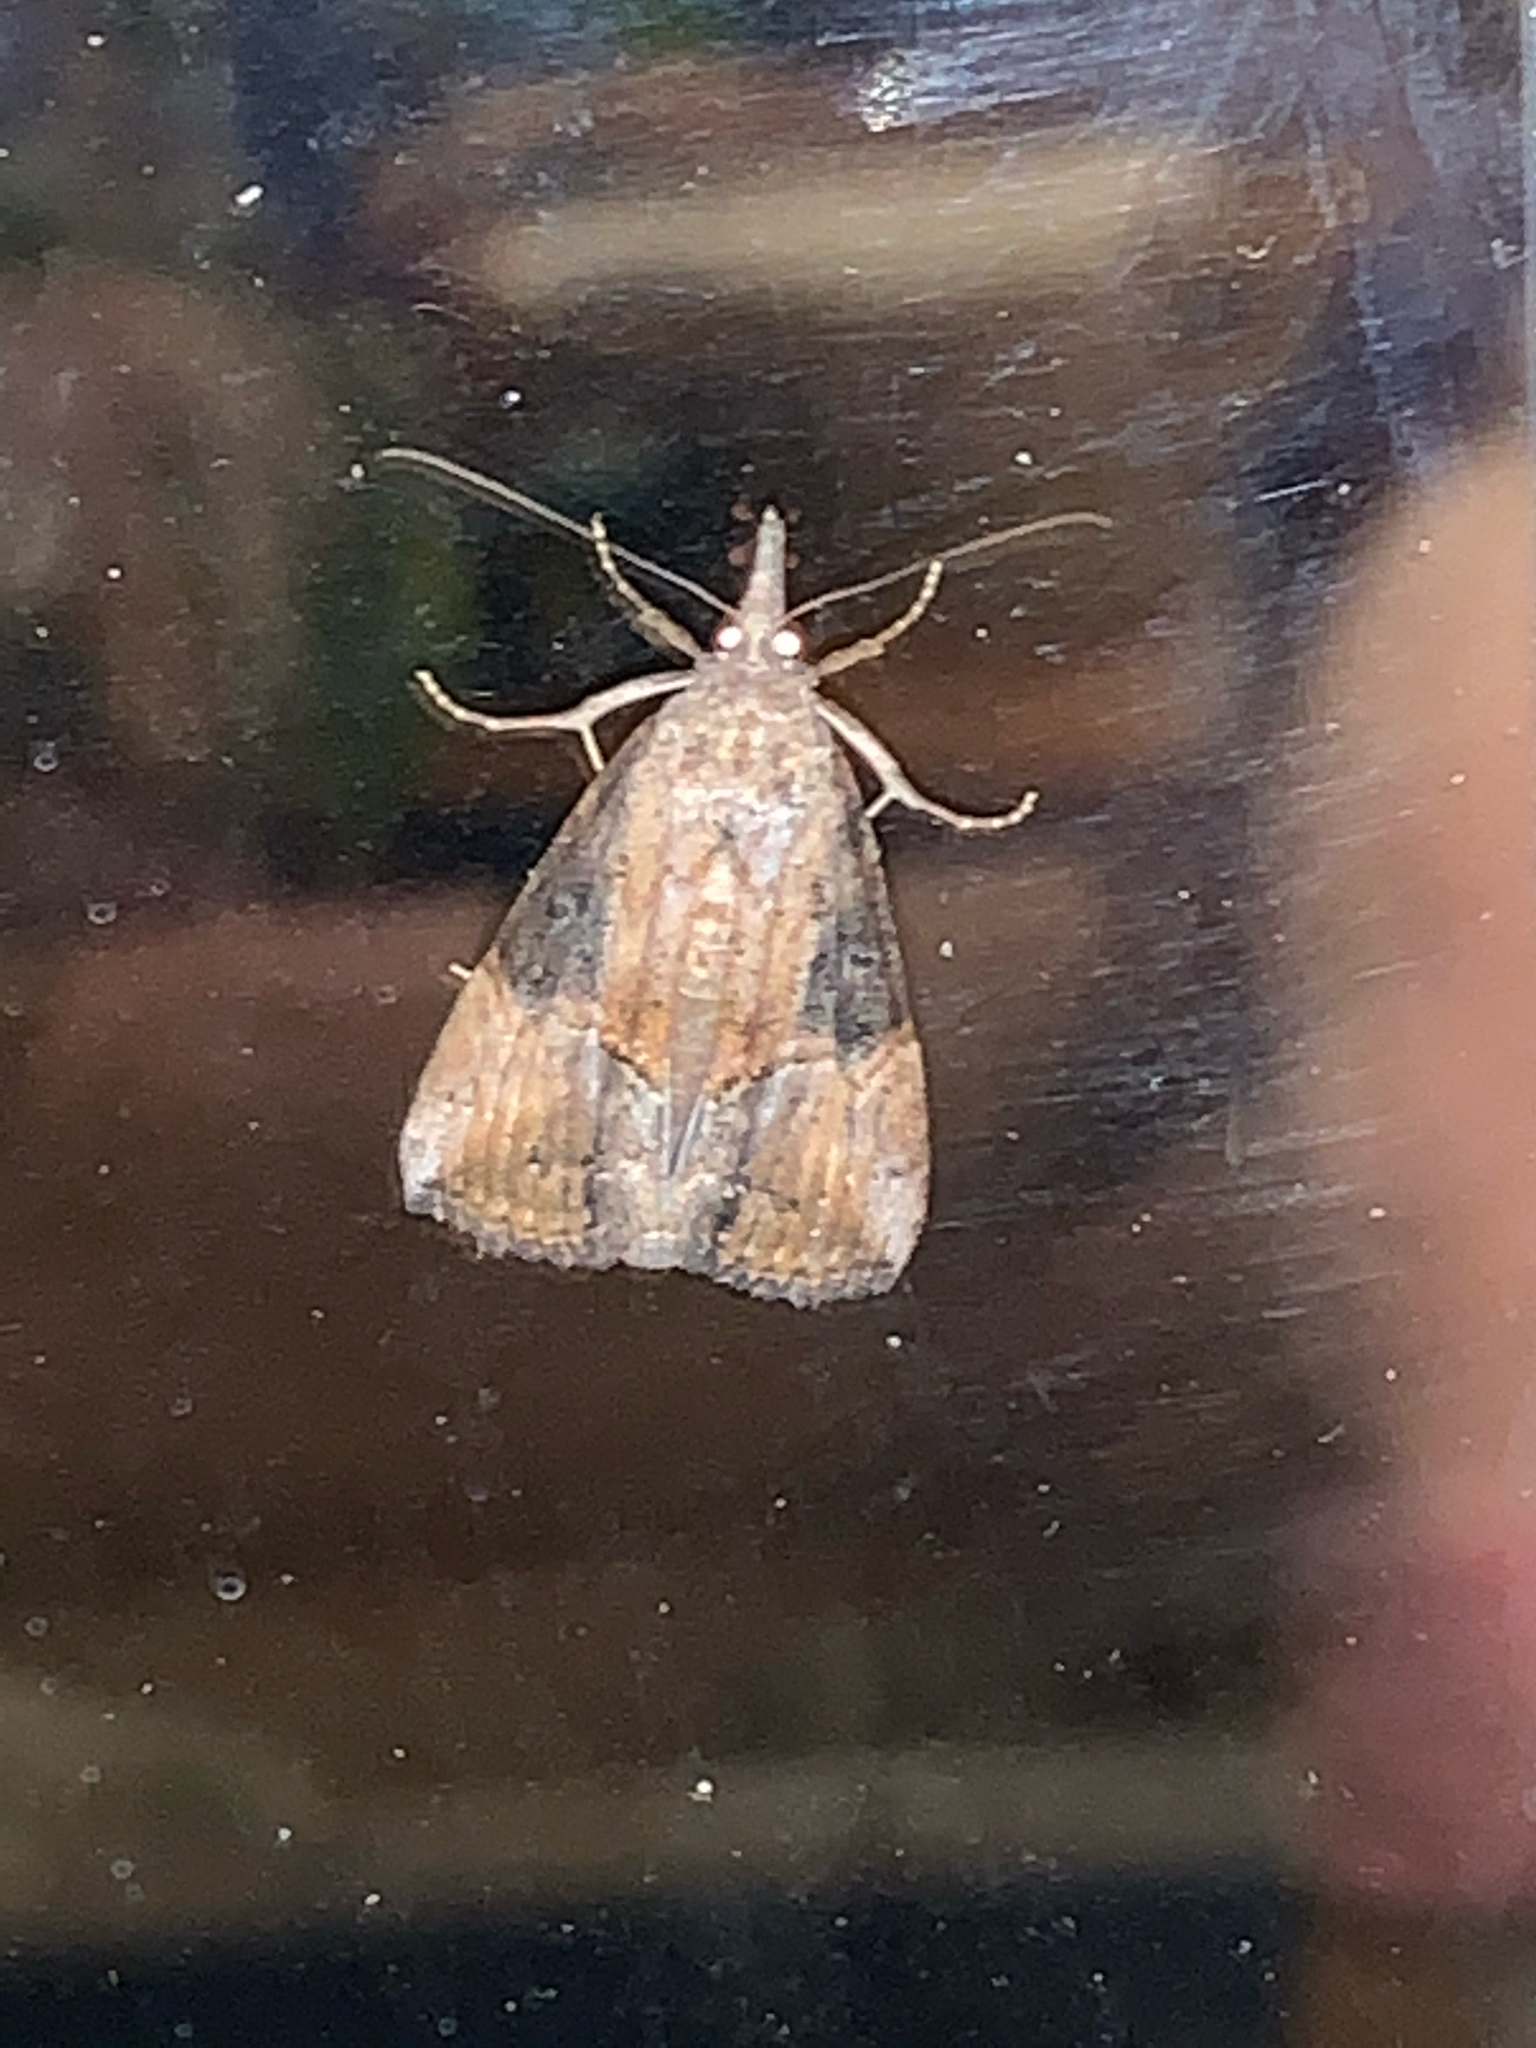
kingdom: Animalia
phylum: Arthropoda
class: Insecta
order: Lepidoptera
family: Erebidae
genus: Hypena
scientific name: Hypena scabra
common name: Green cloverworm
